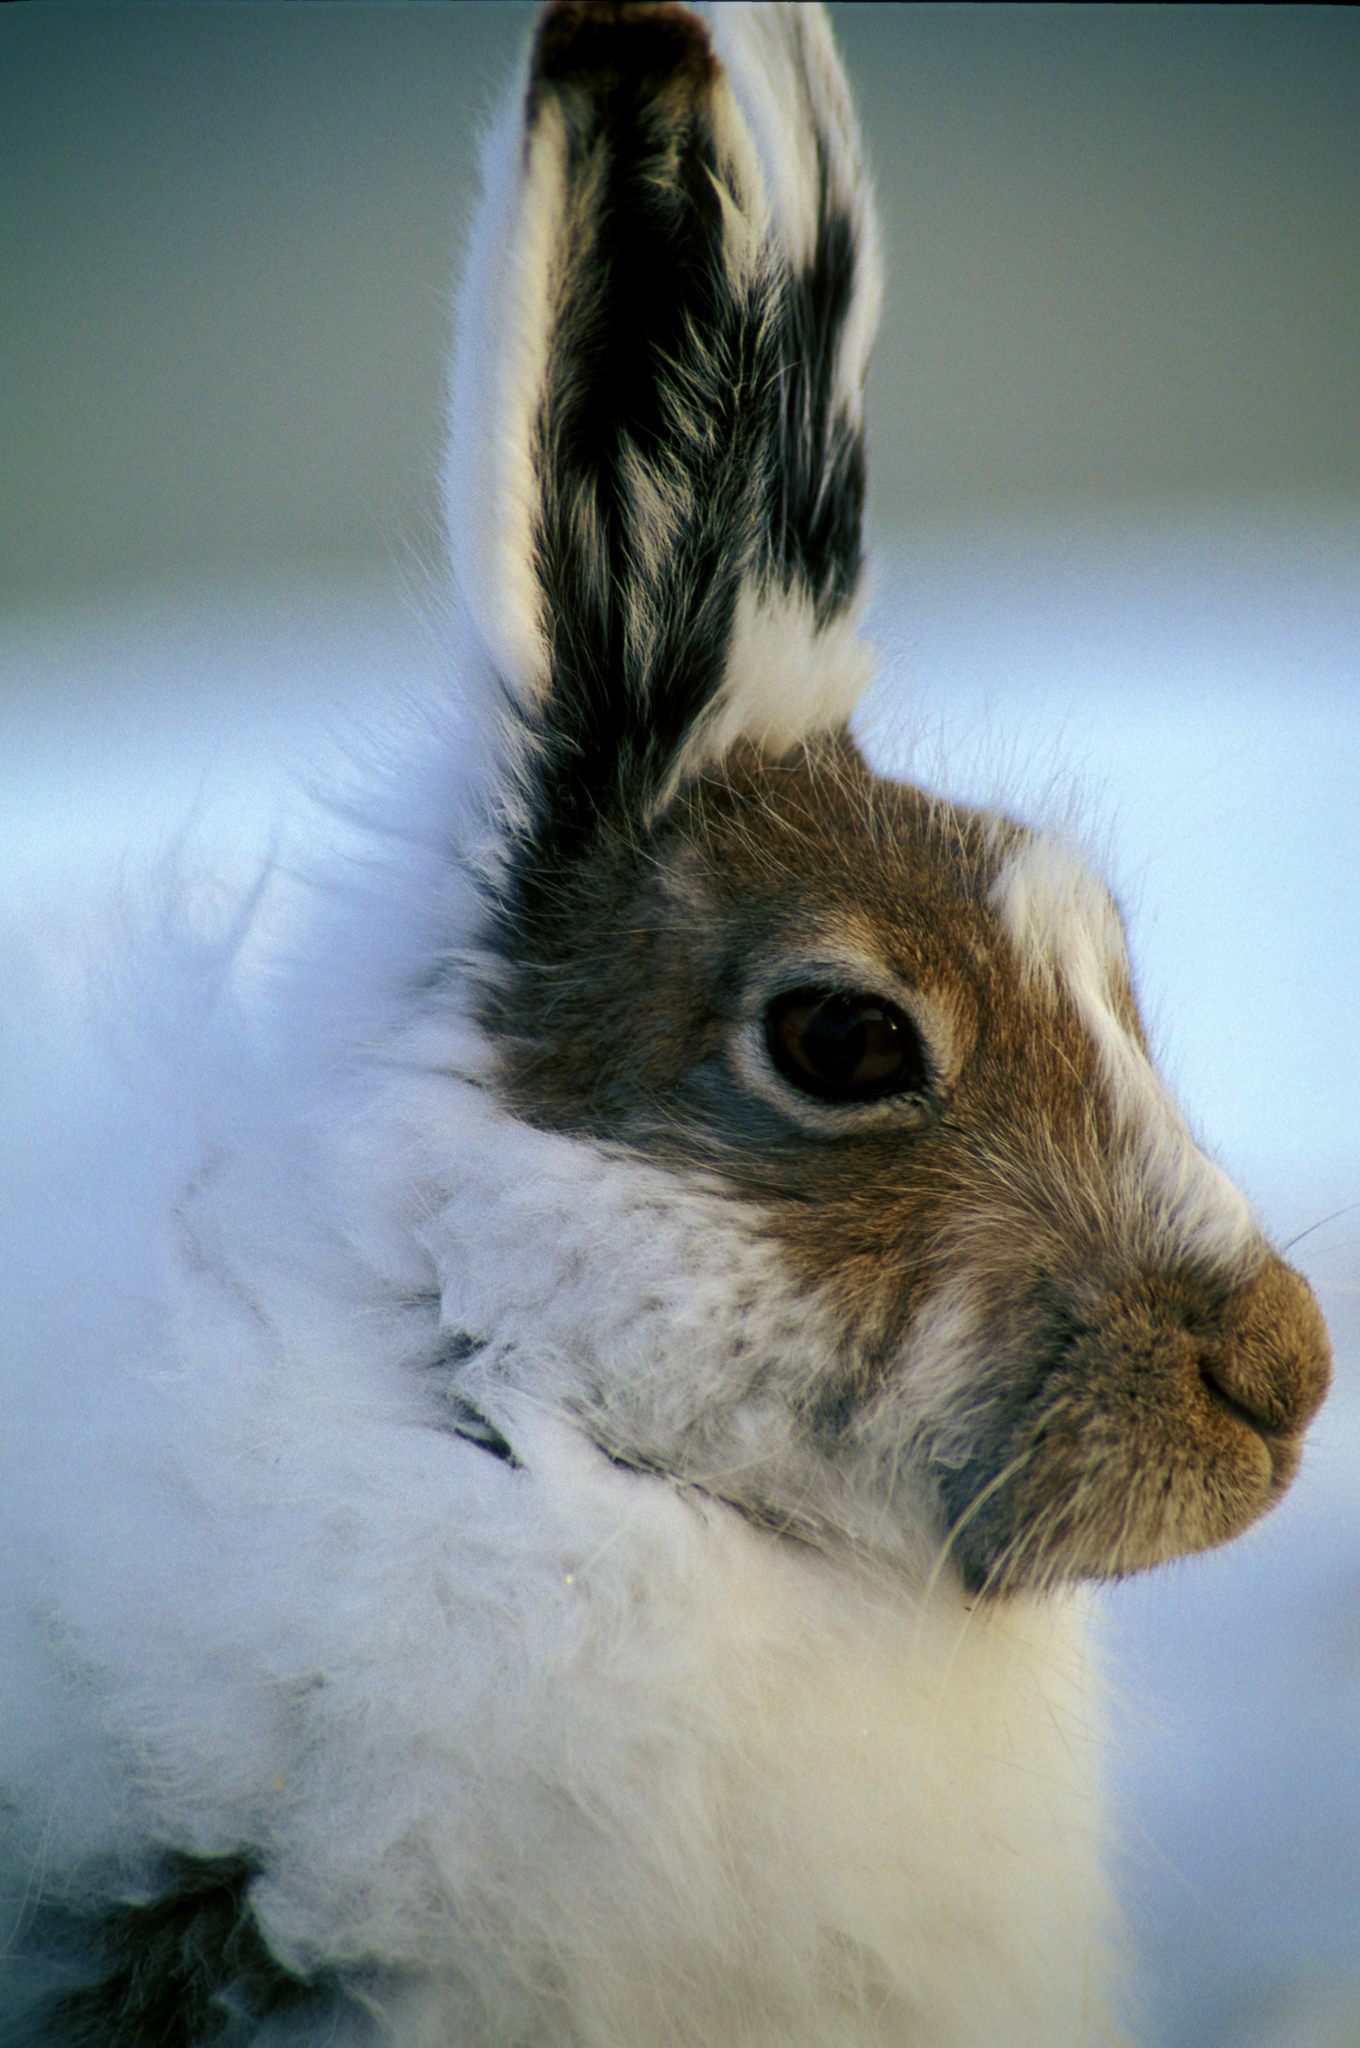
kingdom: Animalia
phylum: Chordata
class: Mammalia
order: Lagomorpha
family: Leporidae
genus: Lepus
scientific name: Lepus arcticus
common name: Arctic hare
